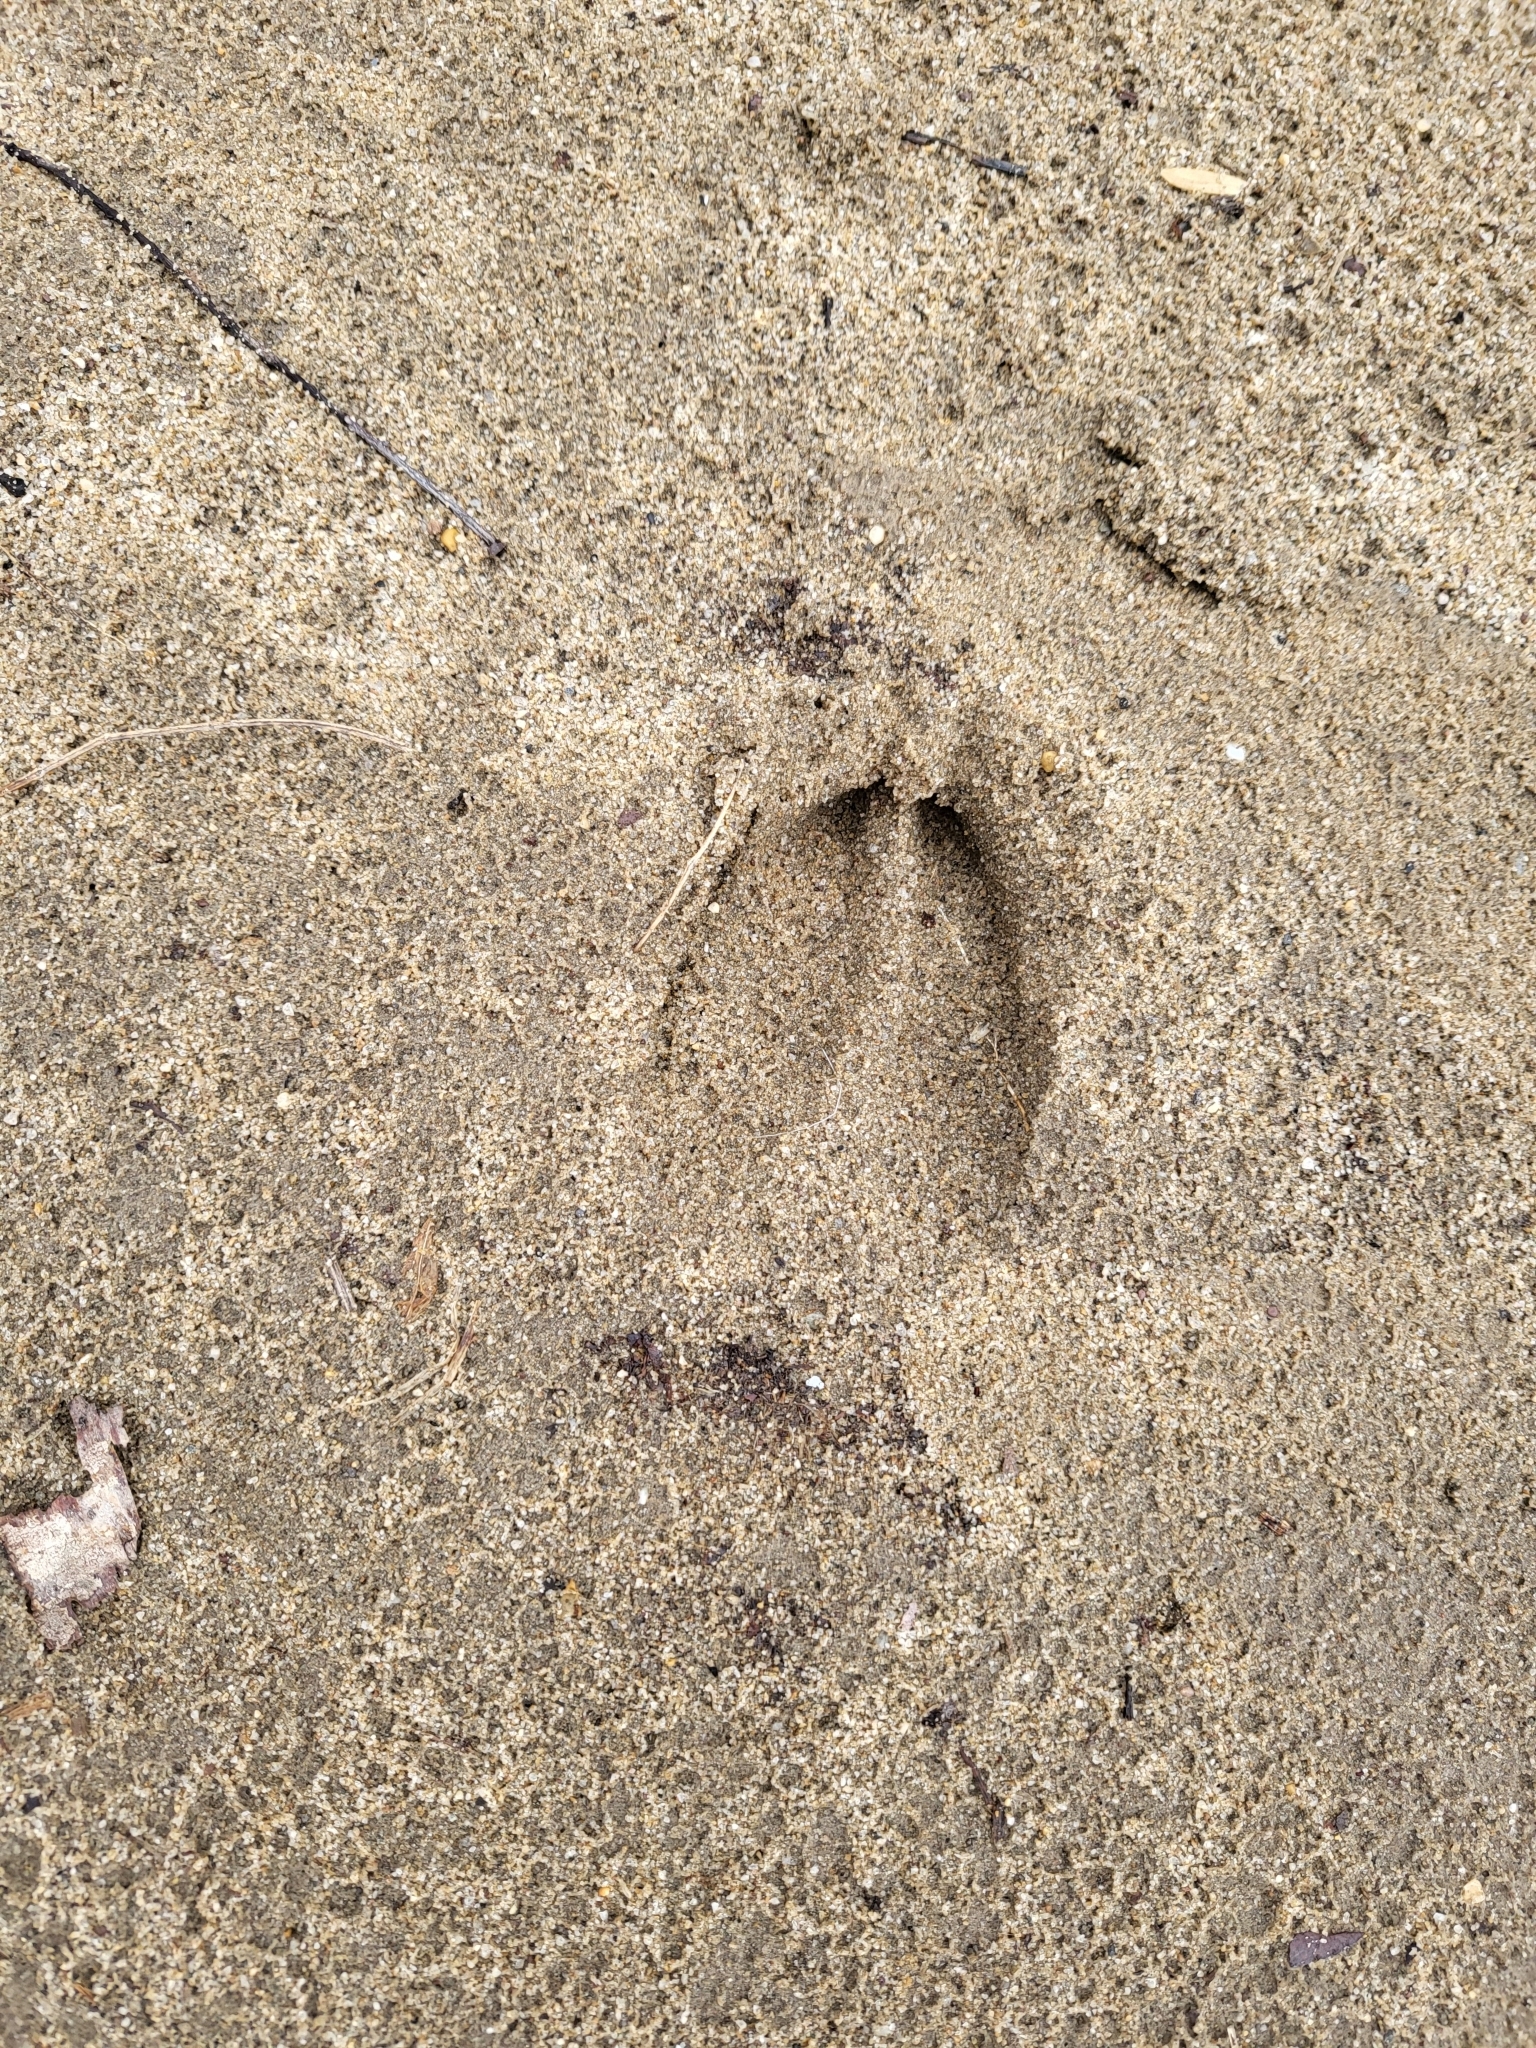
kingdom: Animalia
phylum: Chordata
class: Mammalia
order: Artiodactyla
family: Cervidae
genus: Odocoileus
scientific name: Odocoileus virginianus
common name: White-tailed deer
